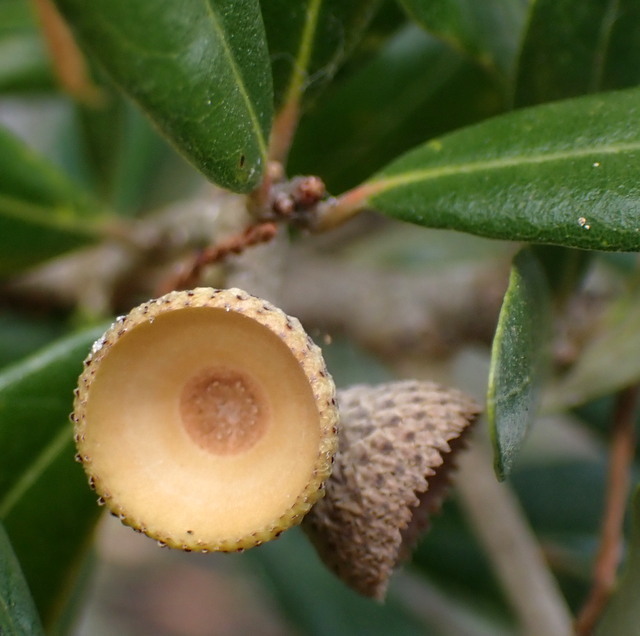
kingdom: Plantae
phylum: Tracheophyta
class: Magnoliopsida
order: Fagales
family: Fagaceae
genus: Quercus
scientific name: Quercus virginiana
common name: Southern live oak
